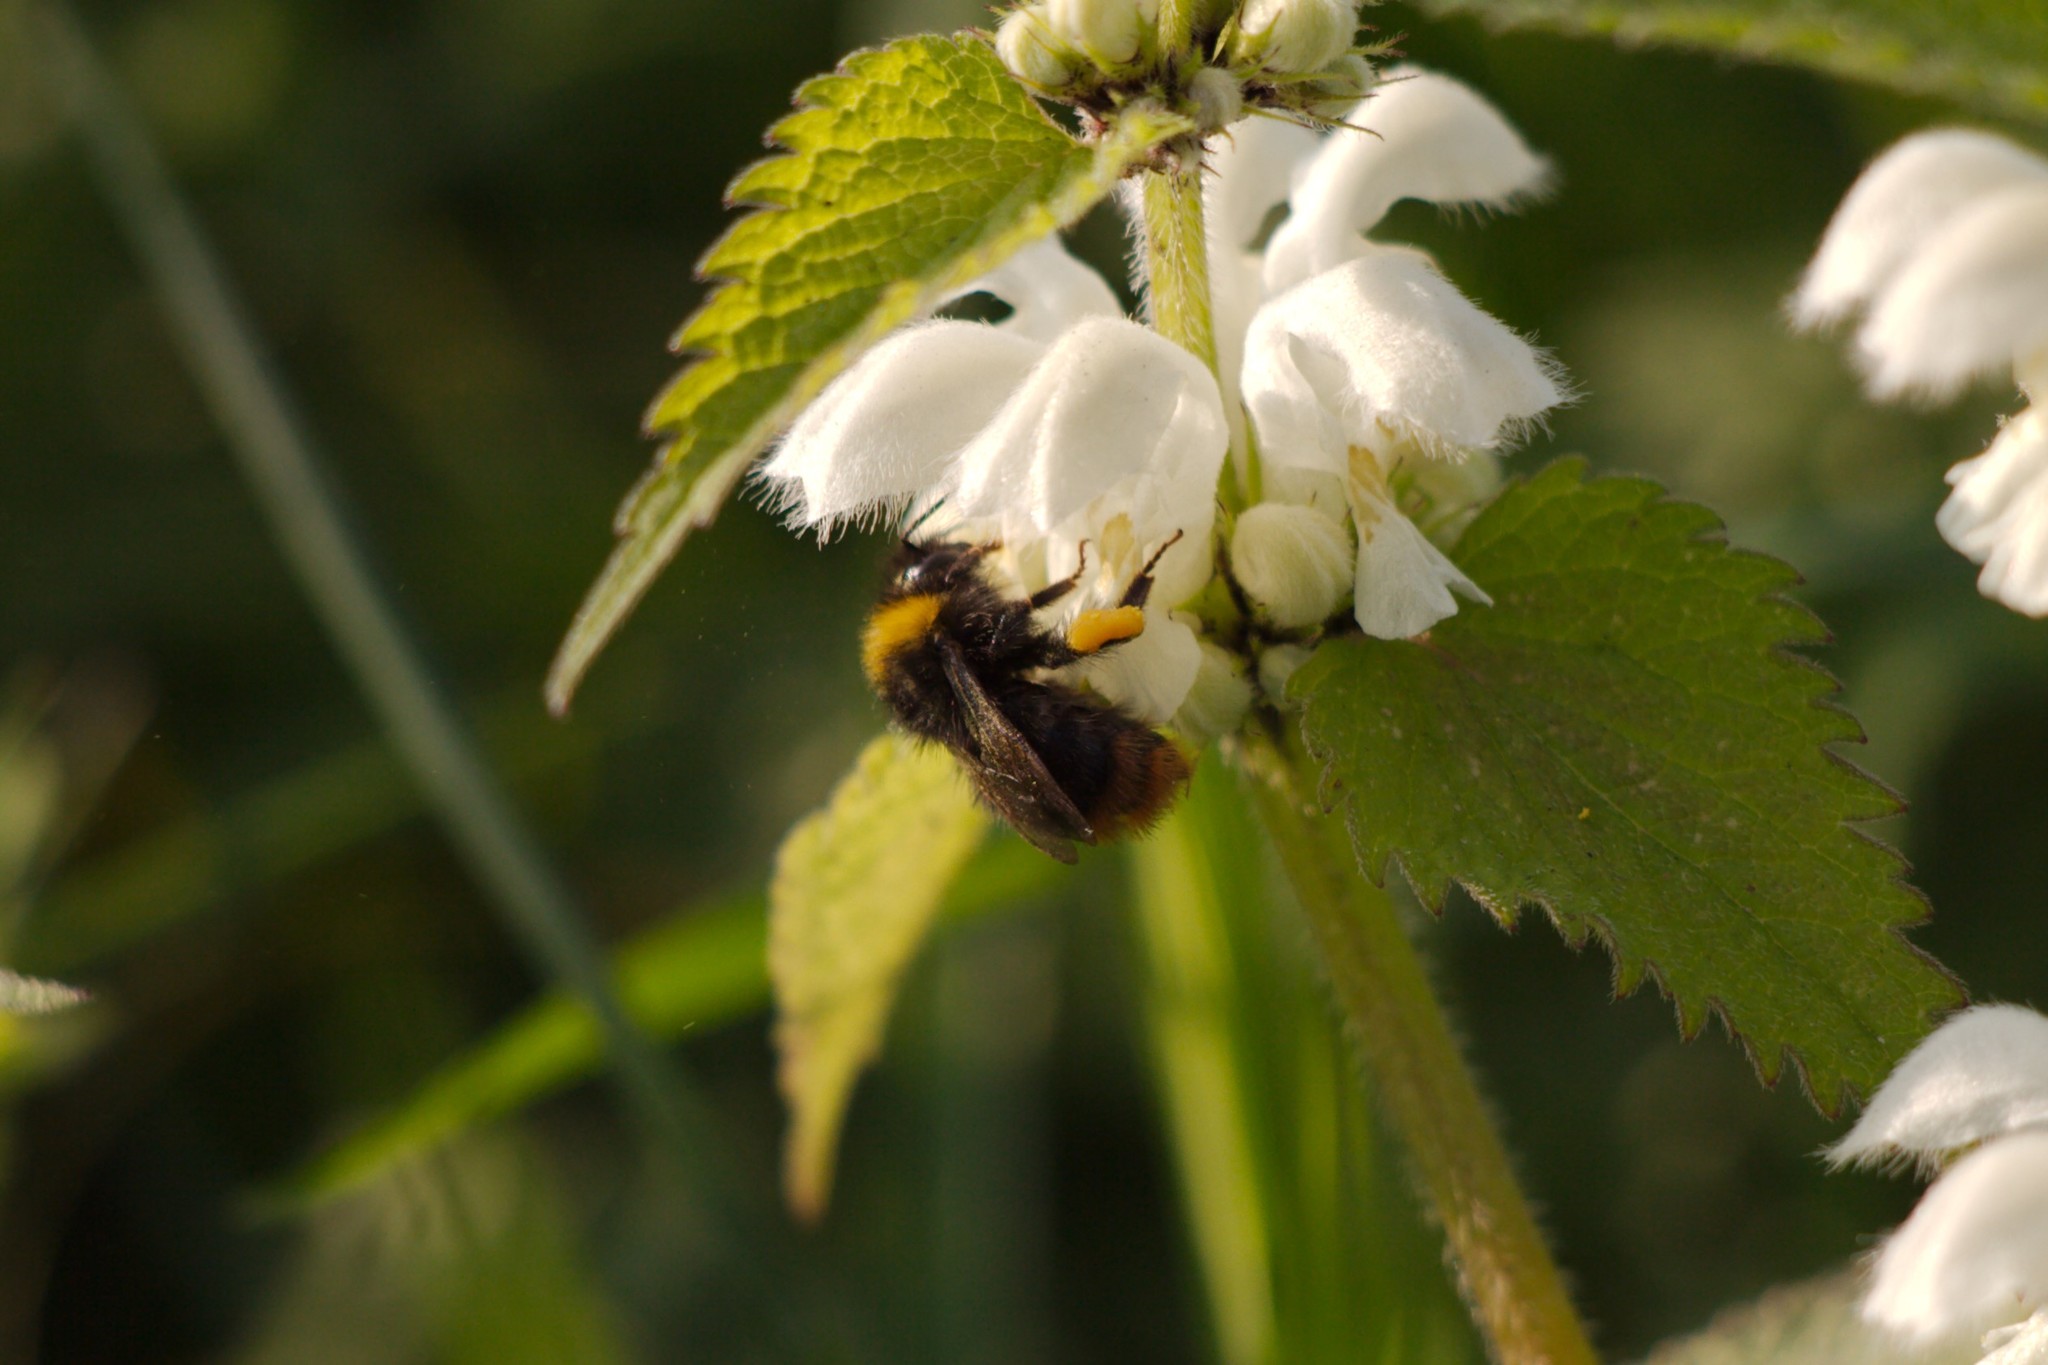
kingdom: Animalia
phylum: Arthropoda
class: Insecta
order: Hymenoptera
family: Apidae
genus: Bombus
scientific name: Bombus pratorum
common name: Early humble-bee
